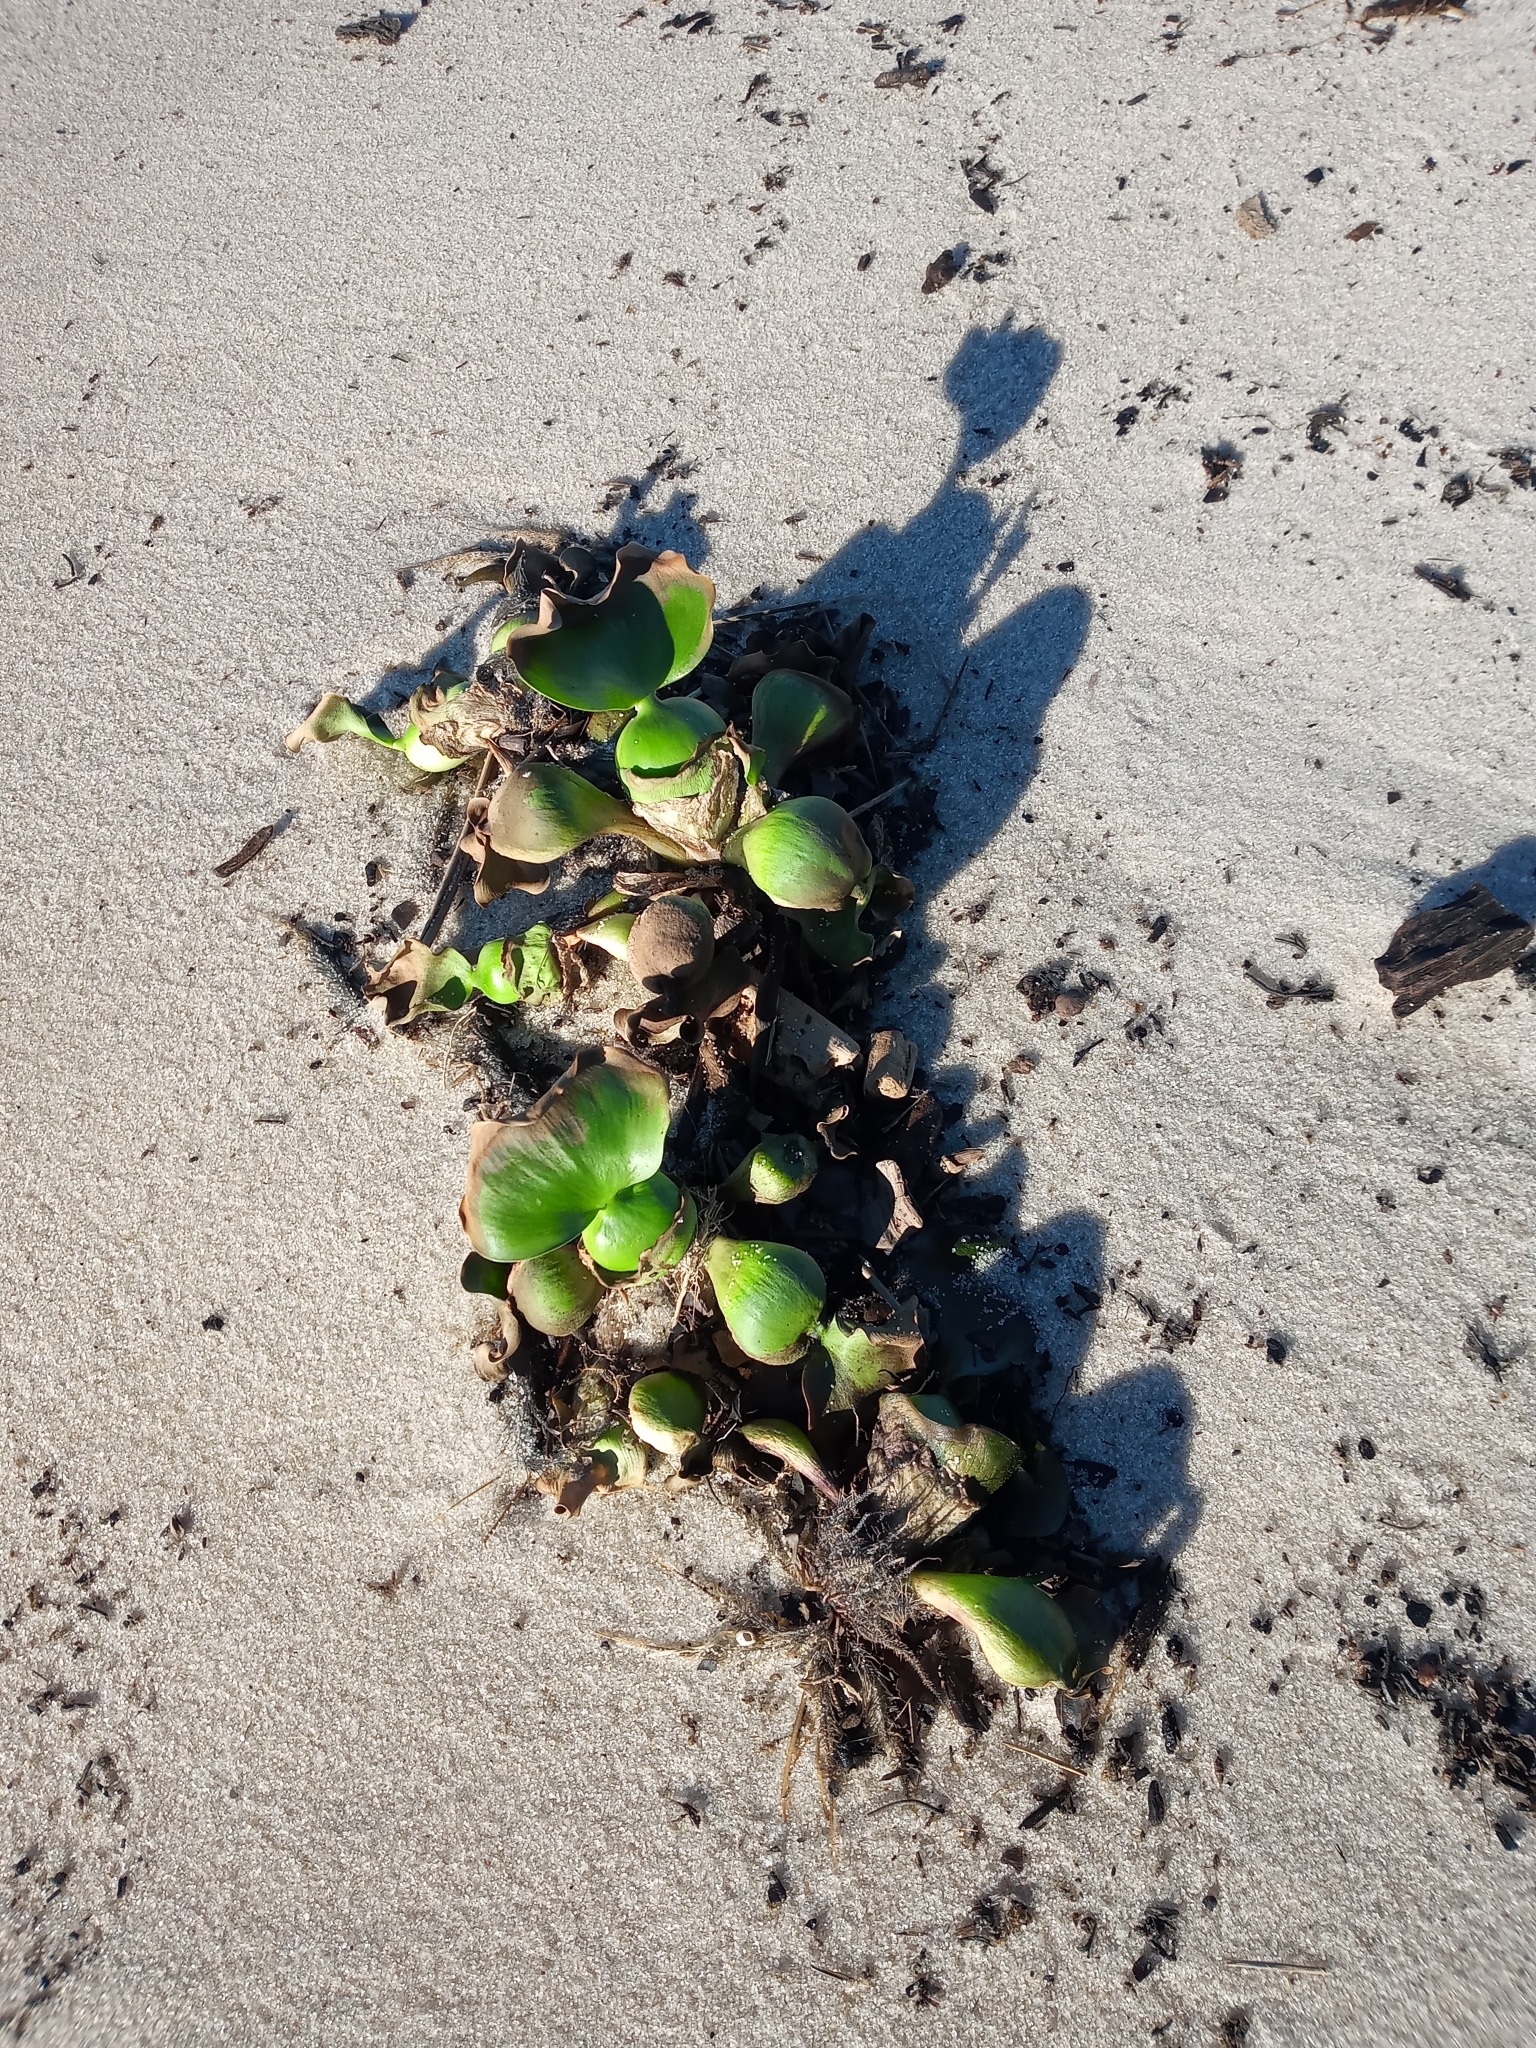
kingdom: Plantae
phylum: Tracheophyta
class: Liliopsida
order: Commelinales
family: Pontederiaceae
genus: Pontederia
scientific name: Pontederia crassipes
